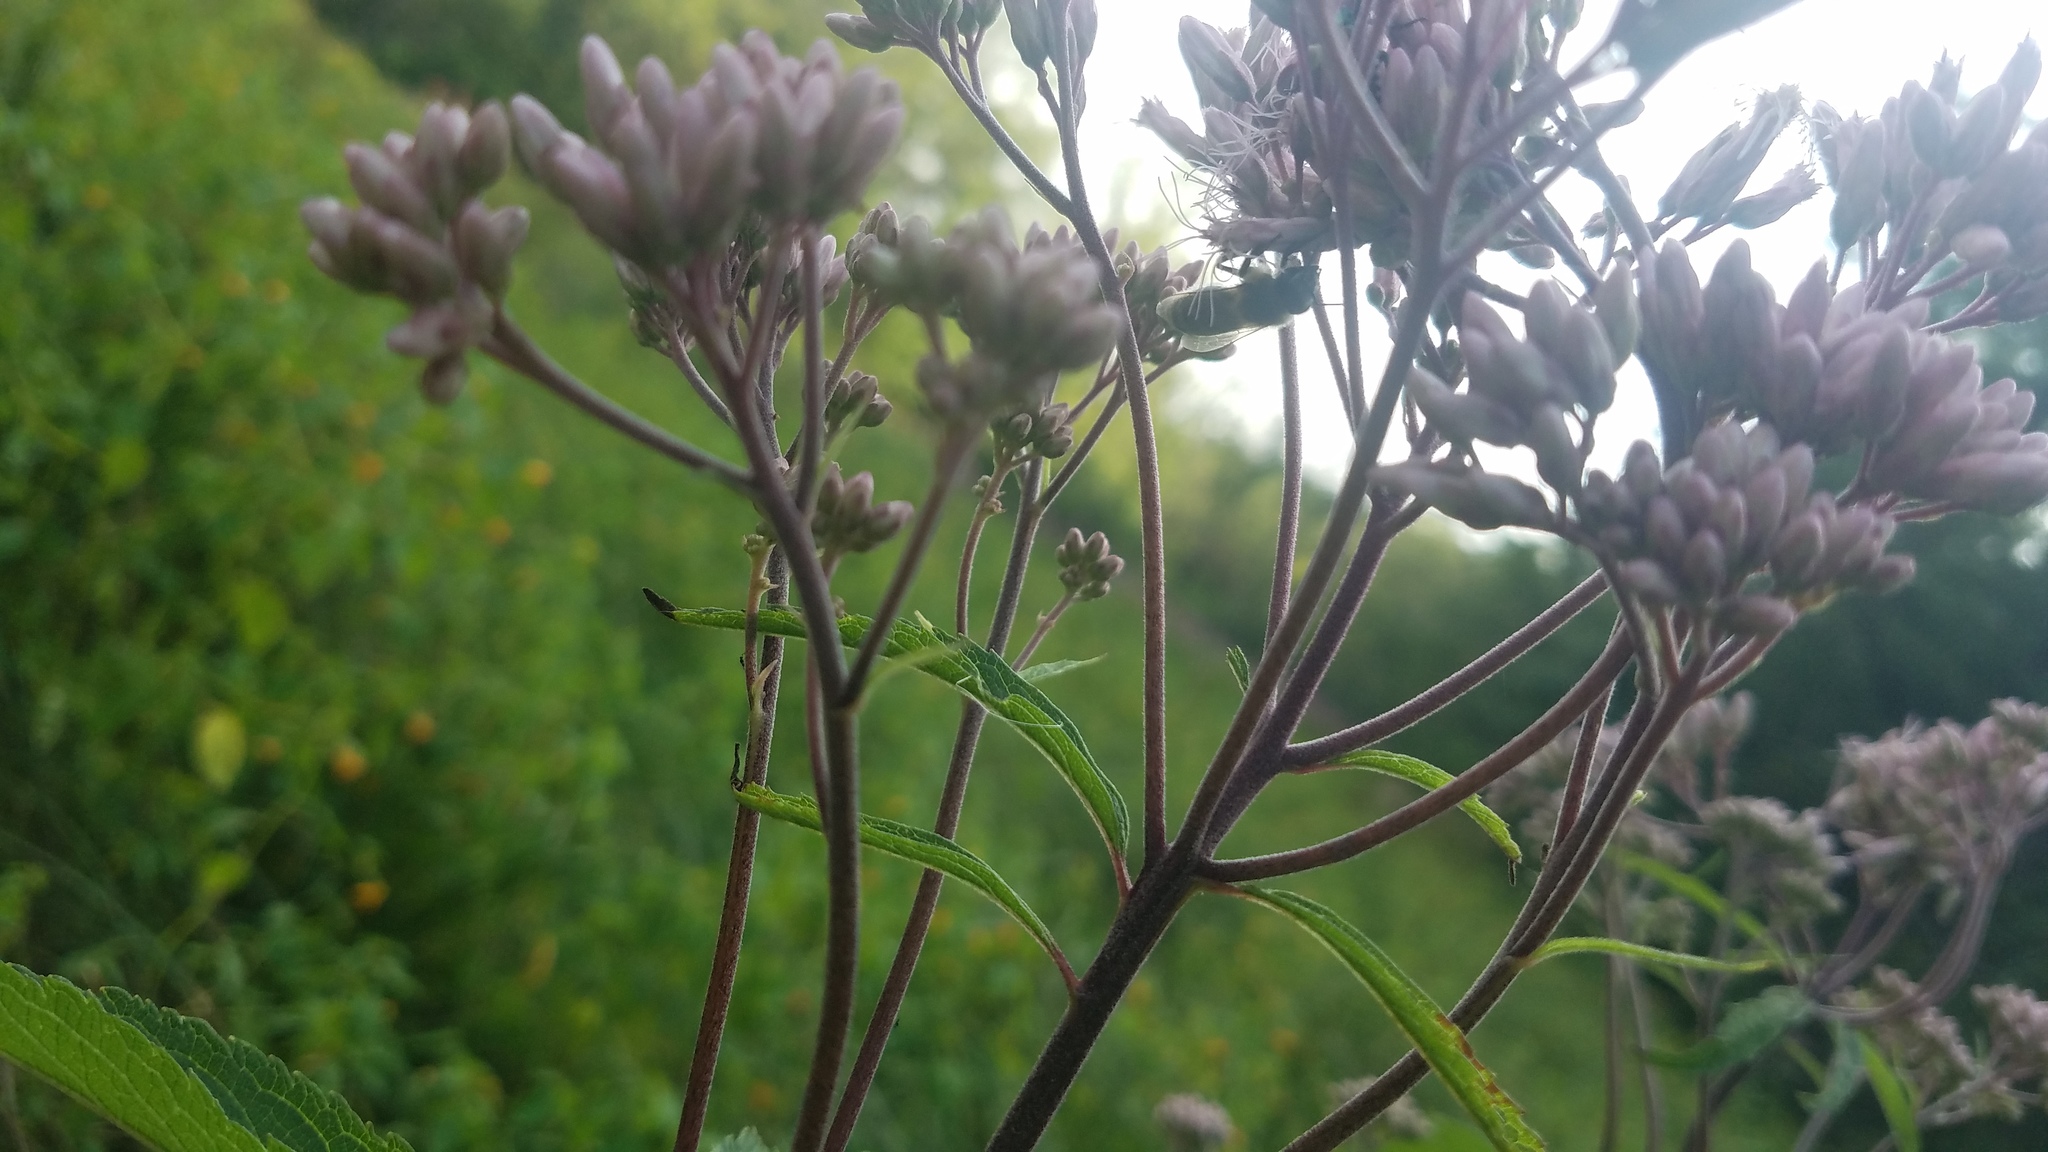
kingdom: Animalia
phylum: Arthropoda
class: Insecta
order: Hymenoptera
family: Apidae
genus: Apis
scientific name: Apis mellifera
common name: Honey bee
